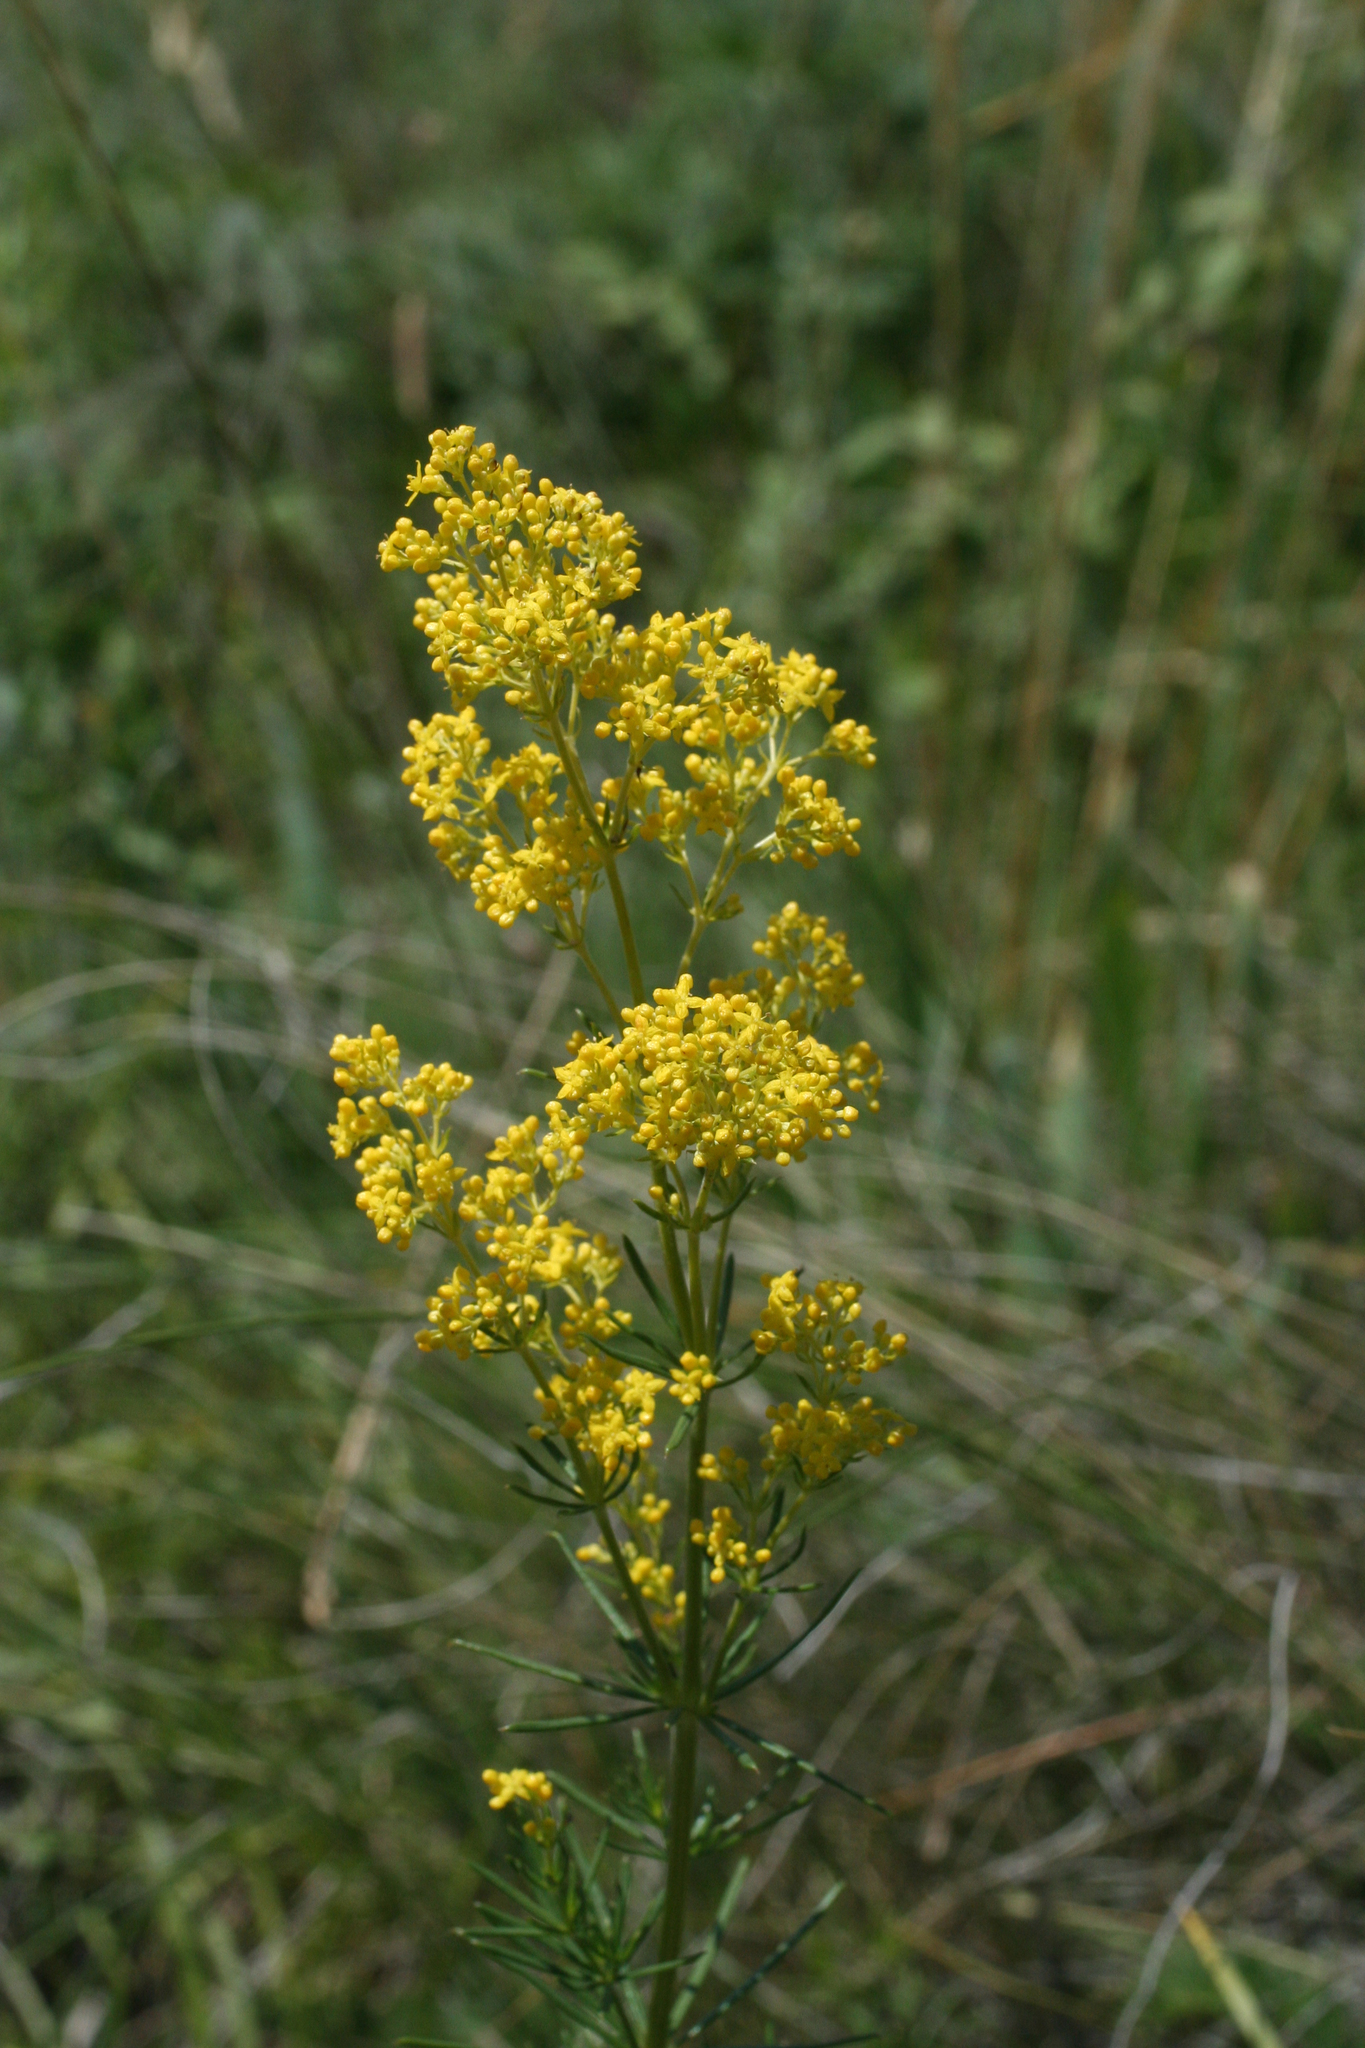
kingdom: Plantae
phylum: Tracheophyta
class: Magnoliopsida
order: Gentianales
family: Rubiaceae
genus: Galium
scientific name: Galium verum
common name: Lady's bedstraw
